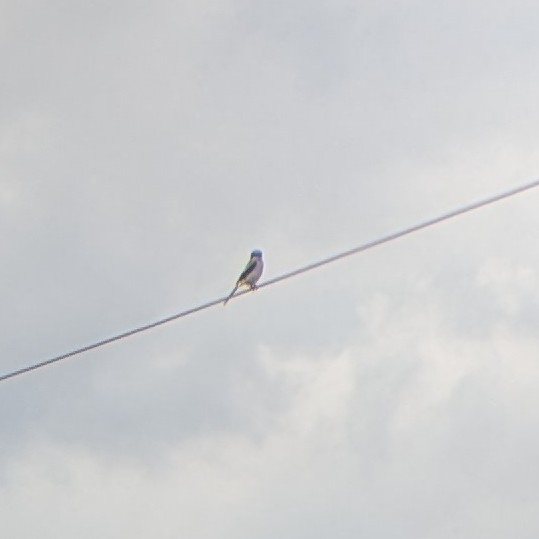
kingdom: Animalia
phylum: Chordata
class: Aves
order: Passeriformes
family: Laniidae
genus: Lanius
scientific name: Lanius ludovicianus
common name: Loggerhead shrike
